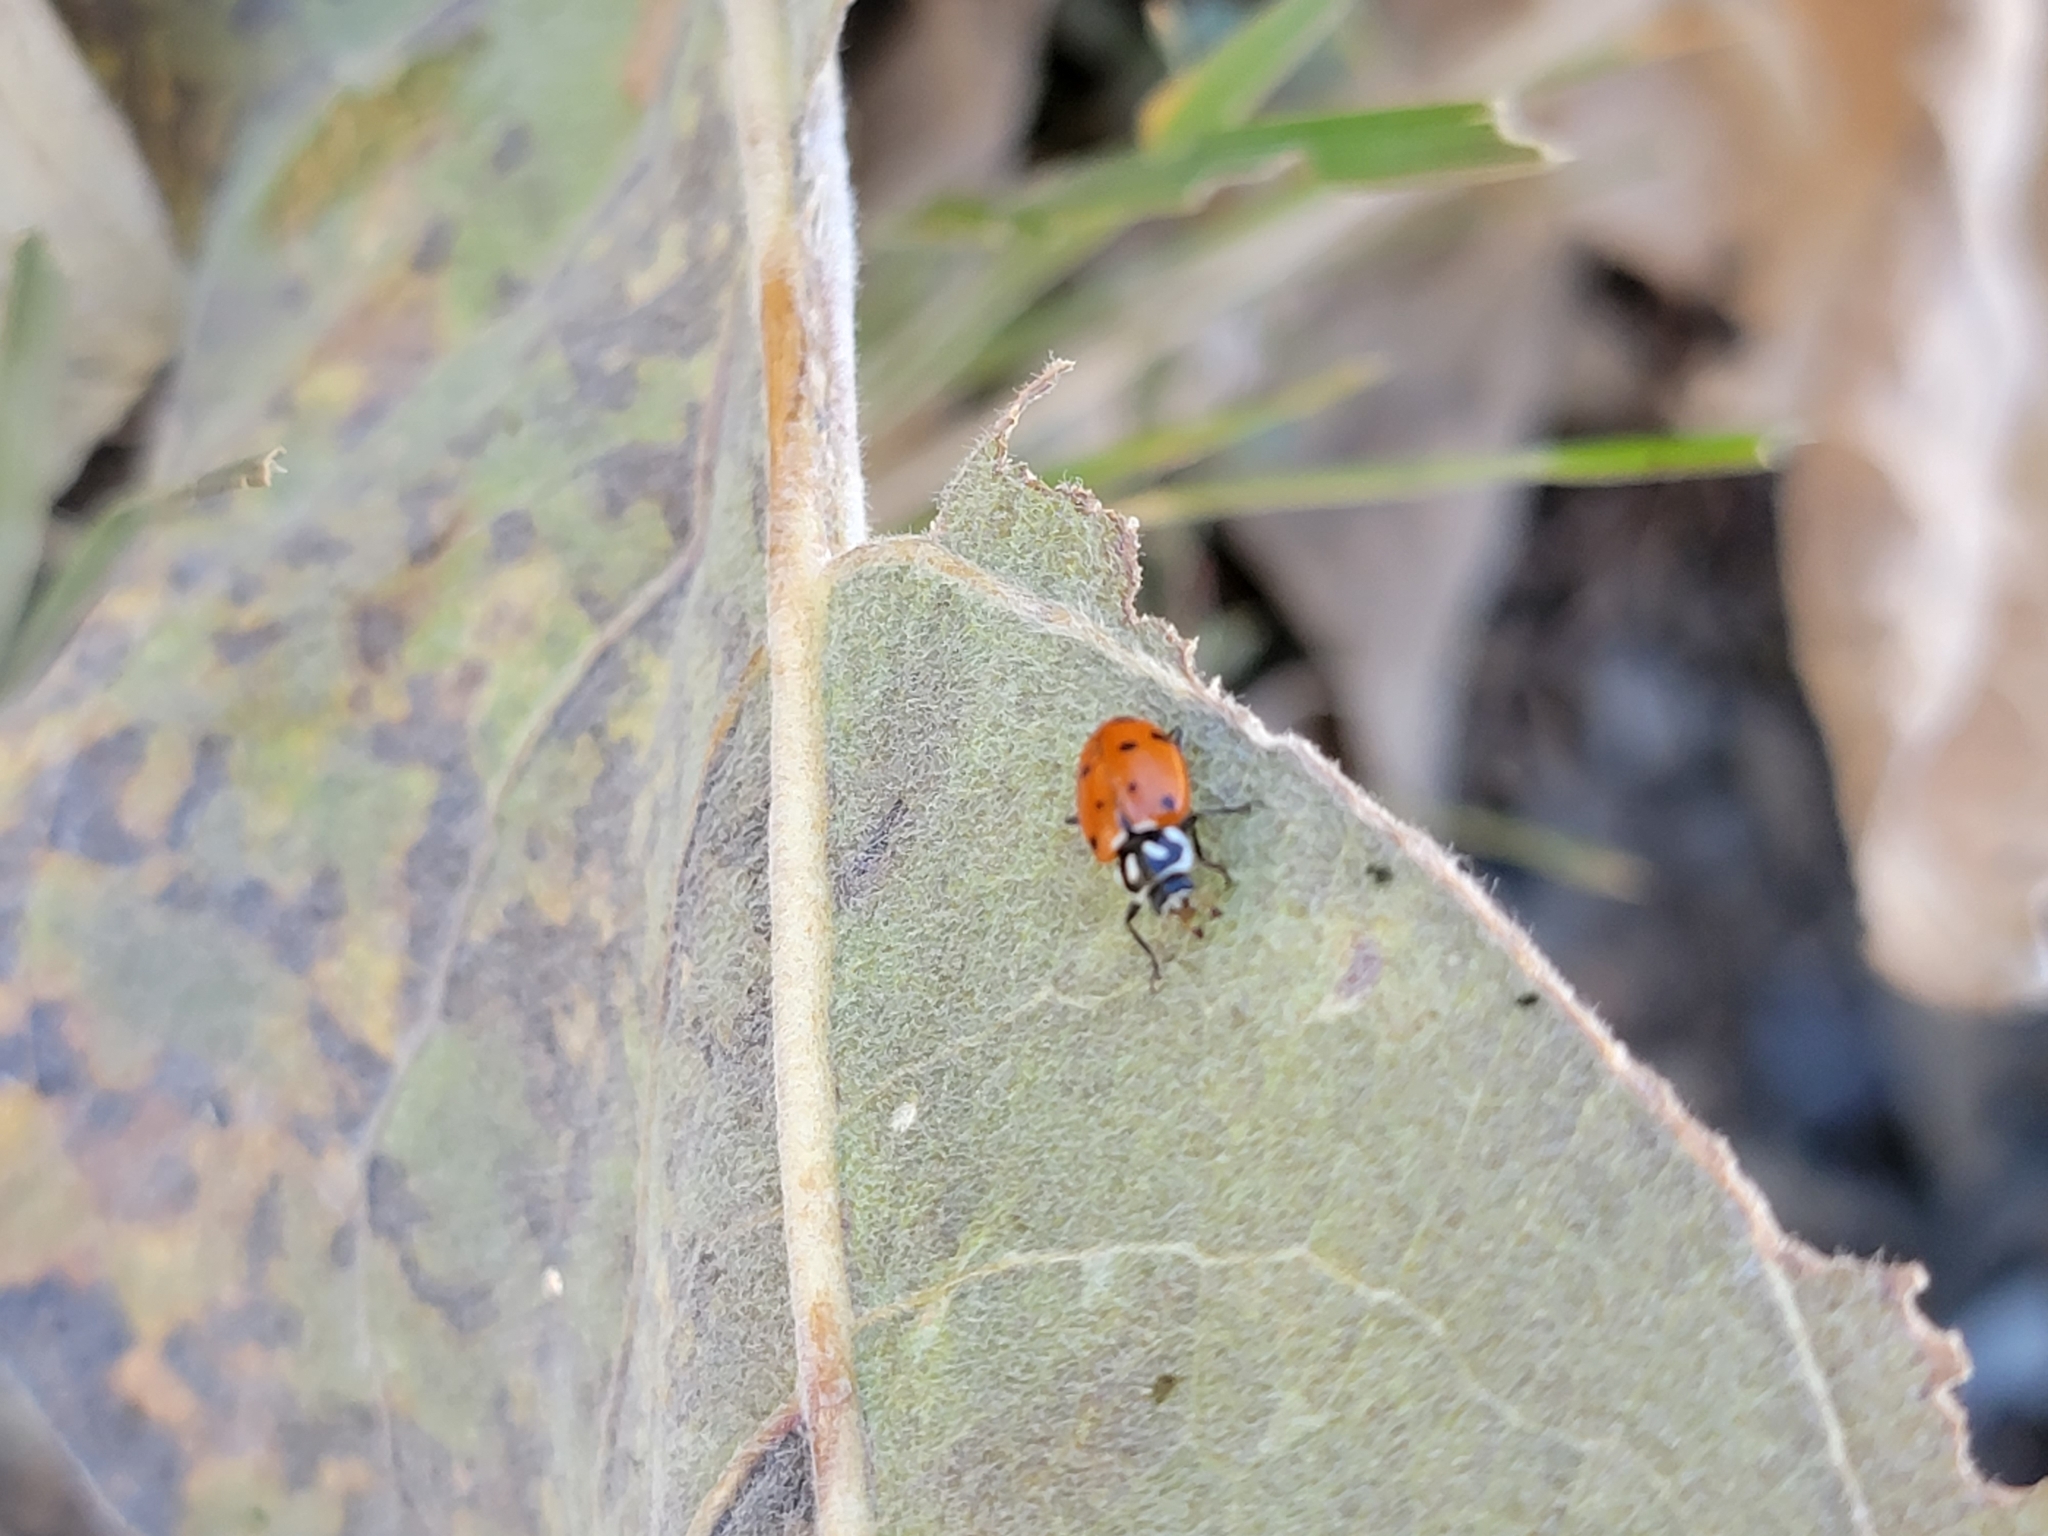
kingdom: Animalia
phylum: Arthropoda
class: Insecta
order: Coleoptera
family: Coccinellidae
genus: Hippodamia
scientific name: Hippodamia convergens
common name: Convergent lady beetle
